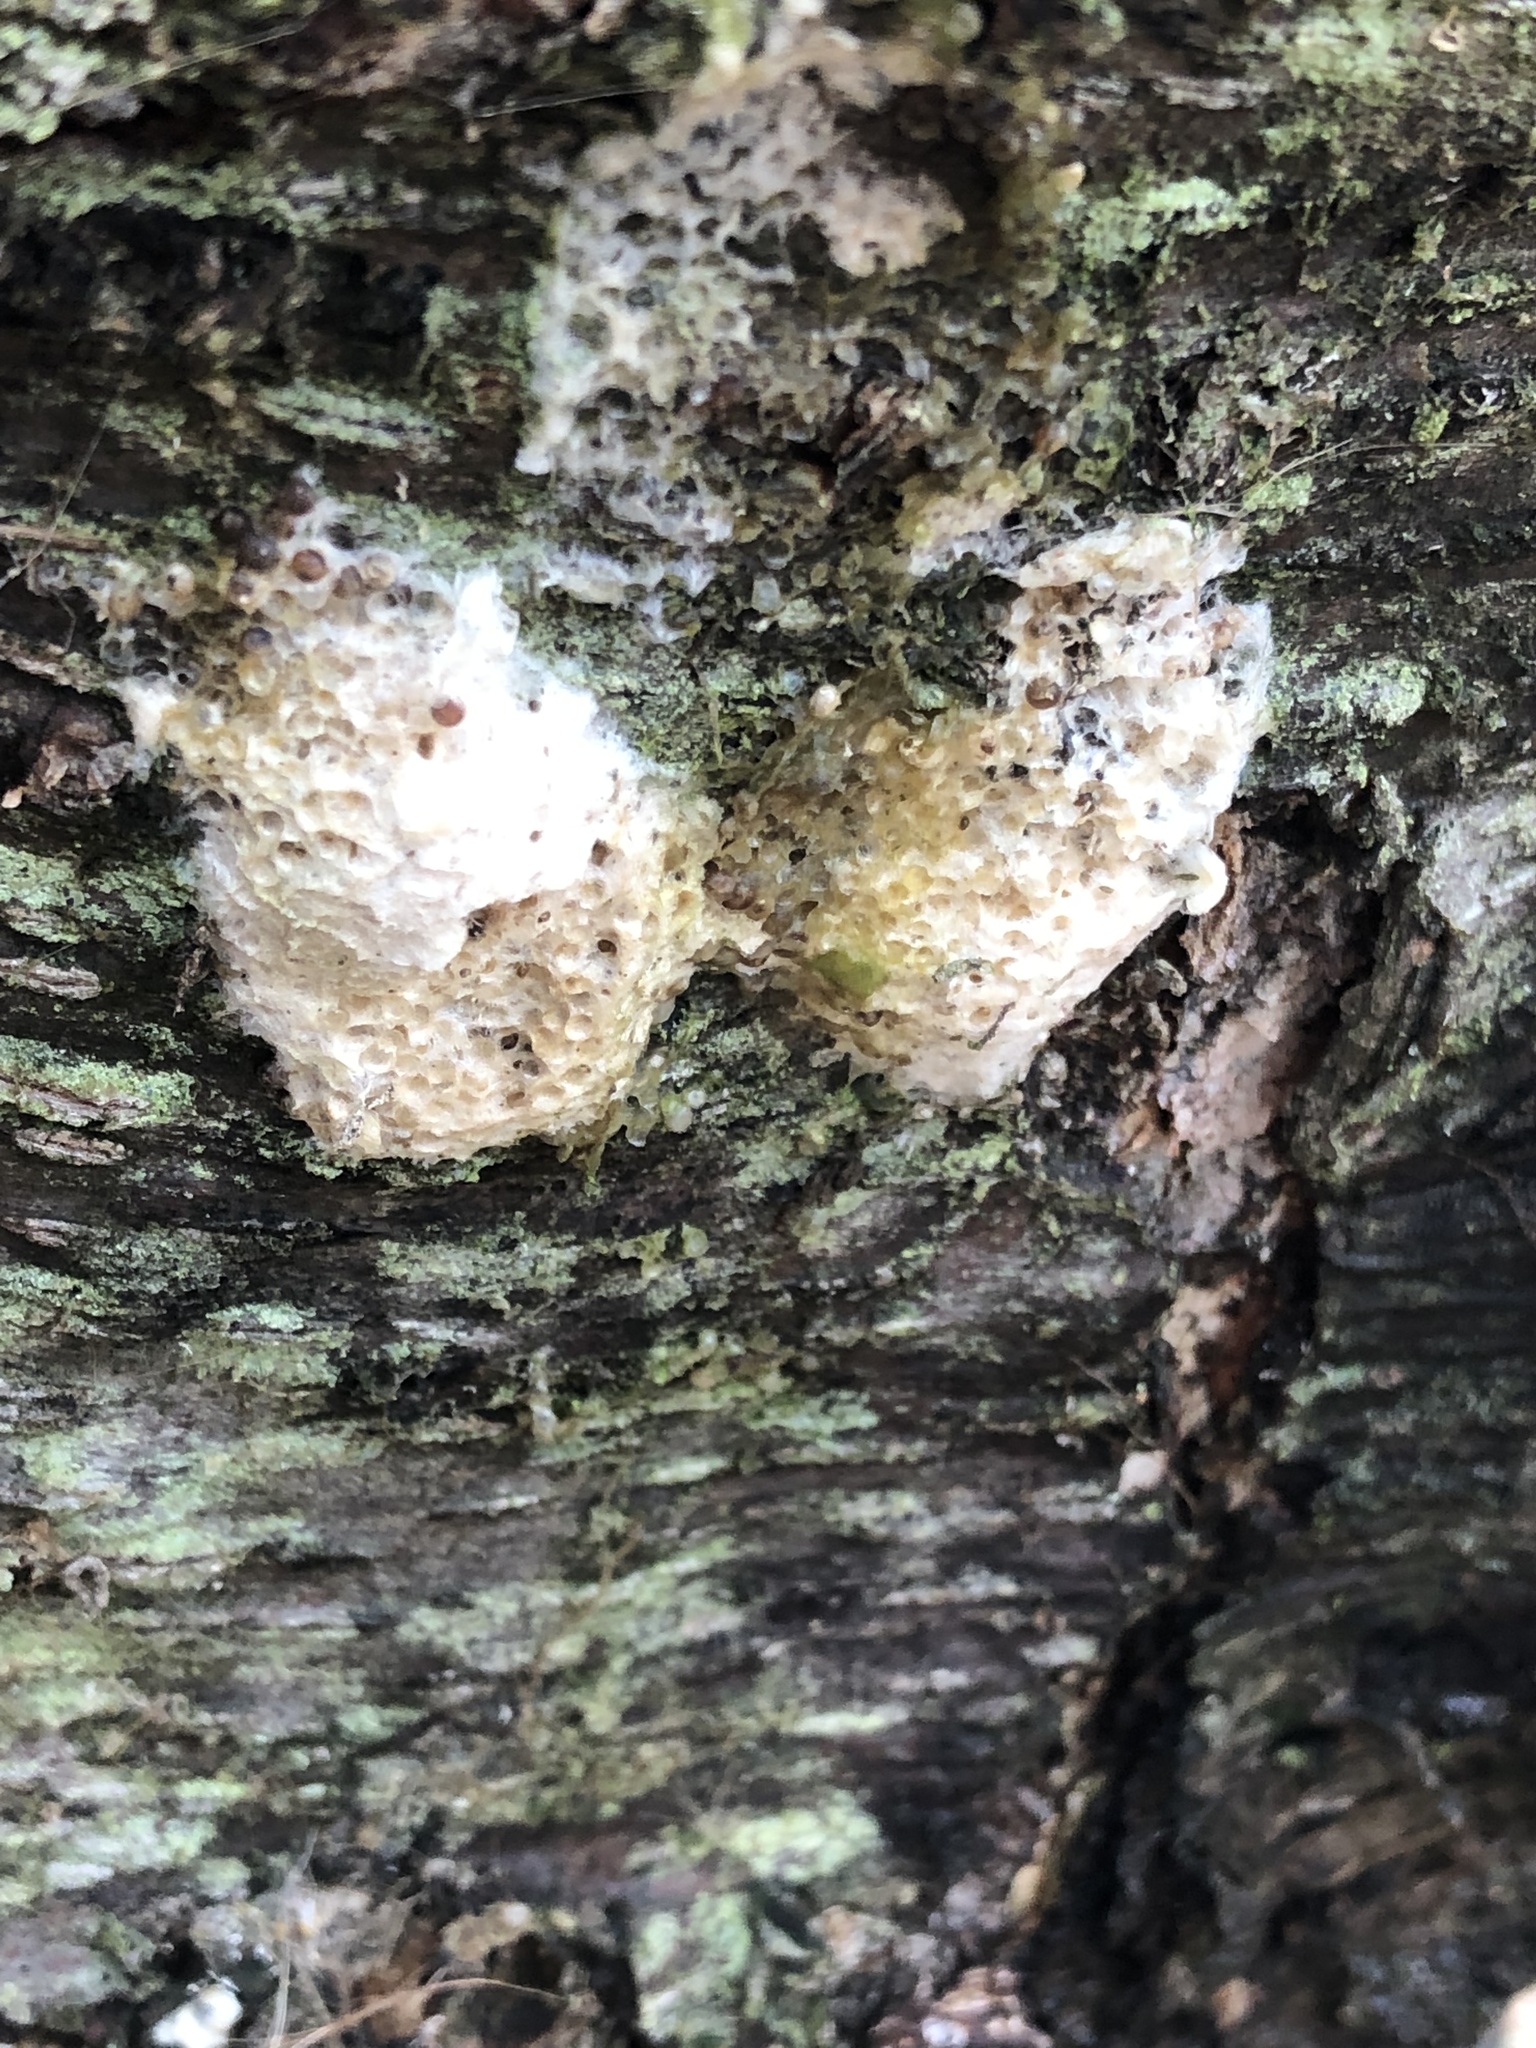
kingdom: Animalia
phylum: Arthropoda
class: Insecta
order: Lepidoptera
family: Erebidae
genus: Lymantria
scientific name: Lymantria dispar
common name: Gypsy moth
